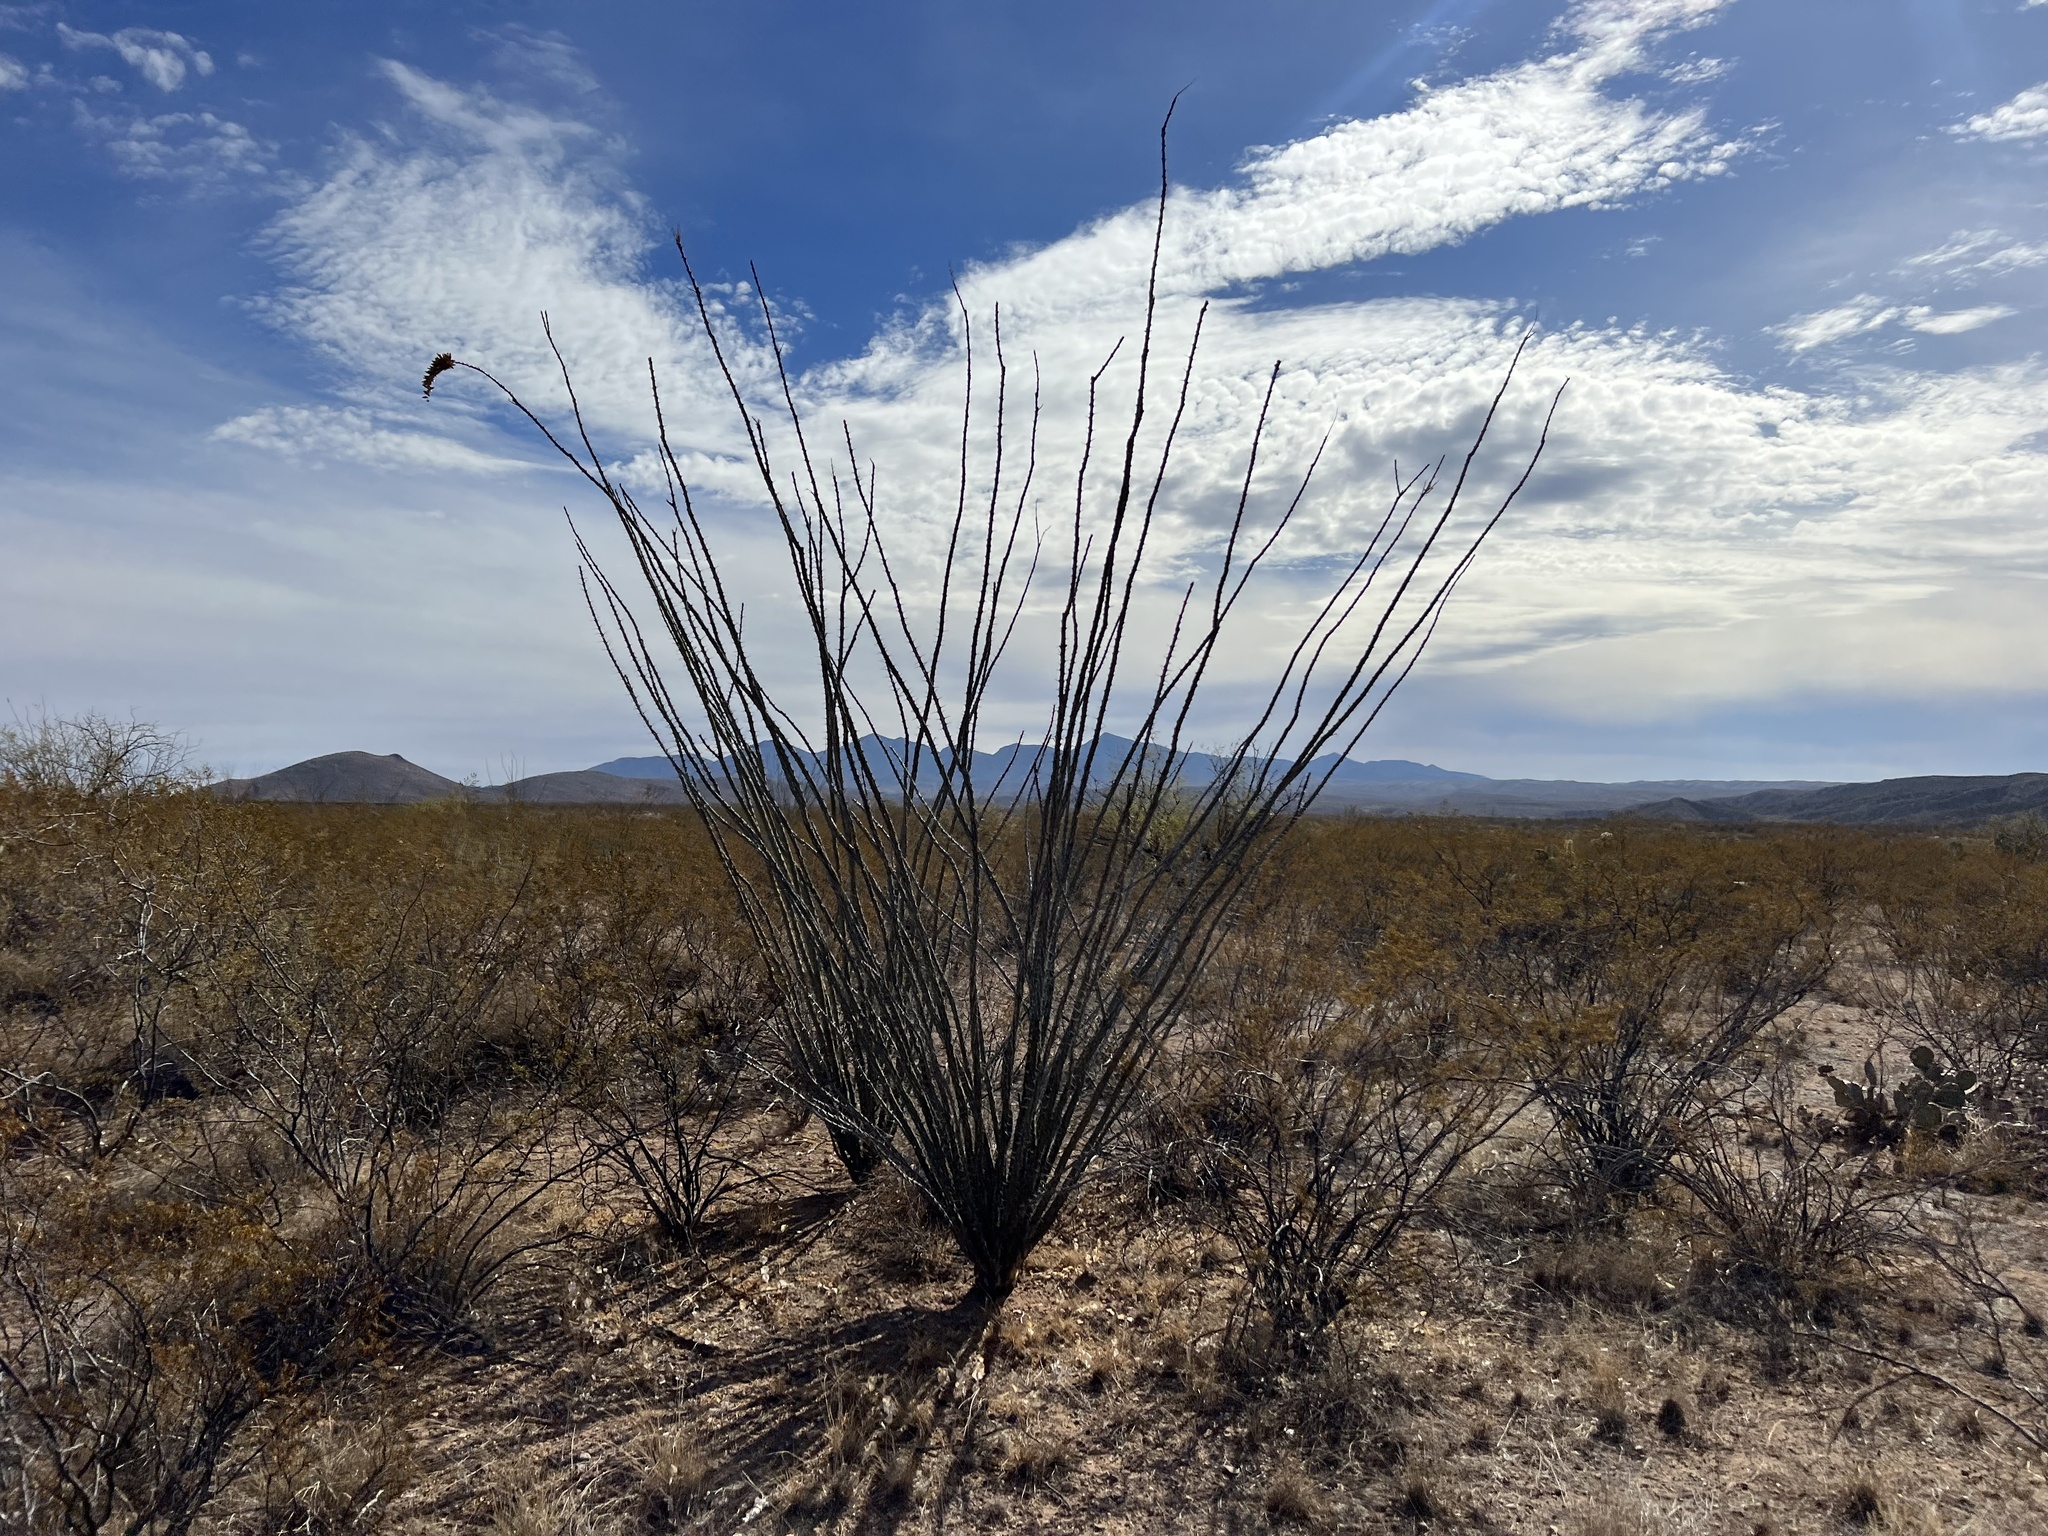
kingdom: Plantae
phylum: Tracheophyta
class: Magnoliopsida
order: Ericales
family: Fouquieriaceae
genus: Fouquieria
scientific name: Fouquieria splendens
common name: Vine-cactus
